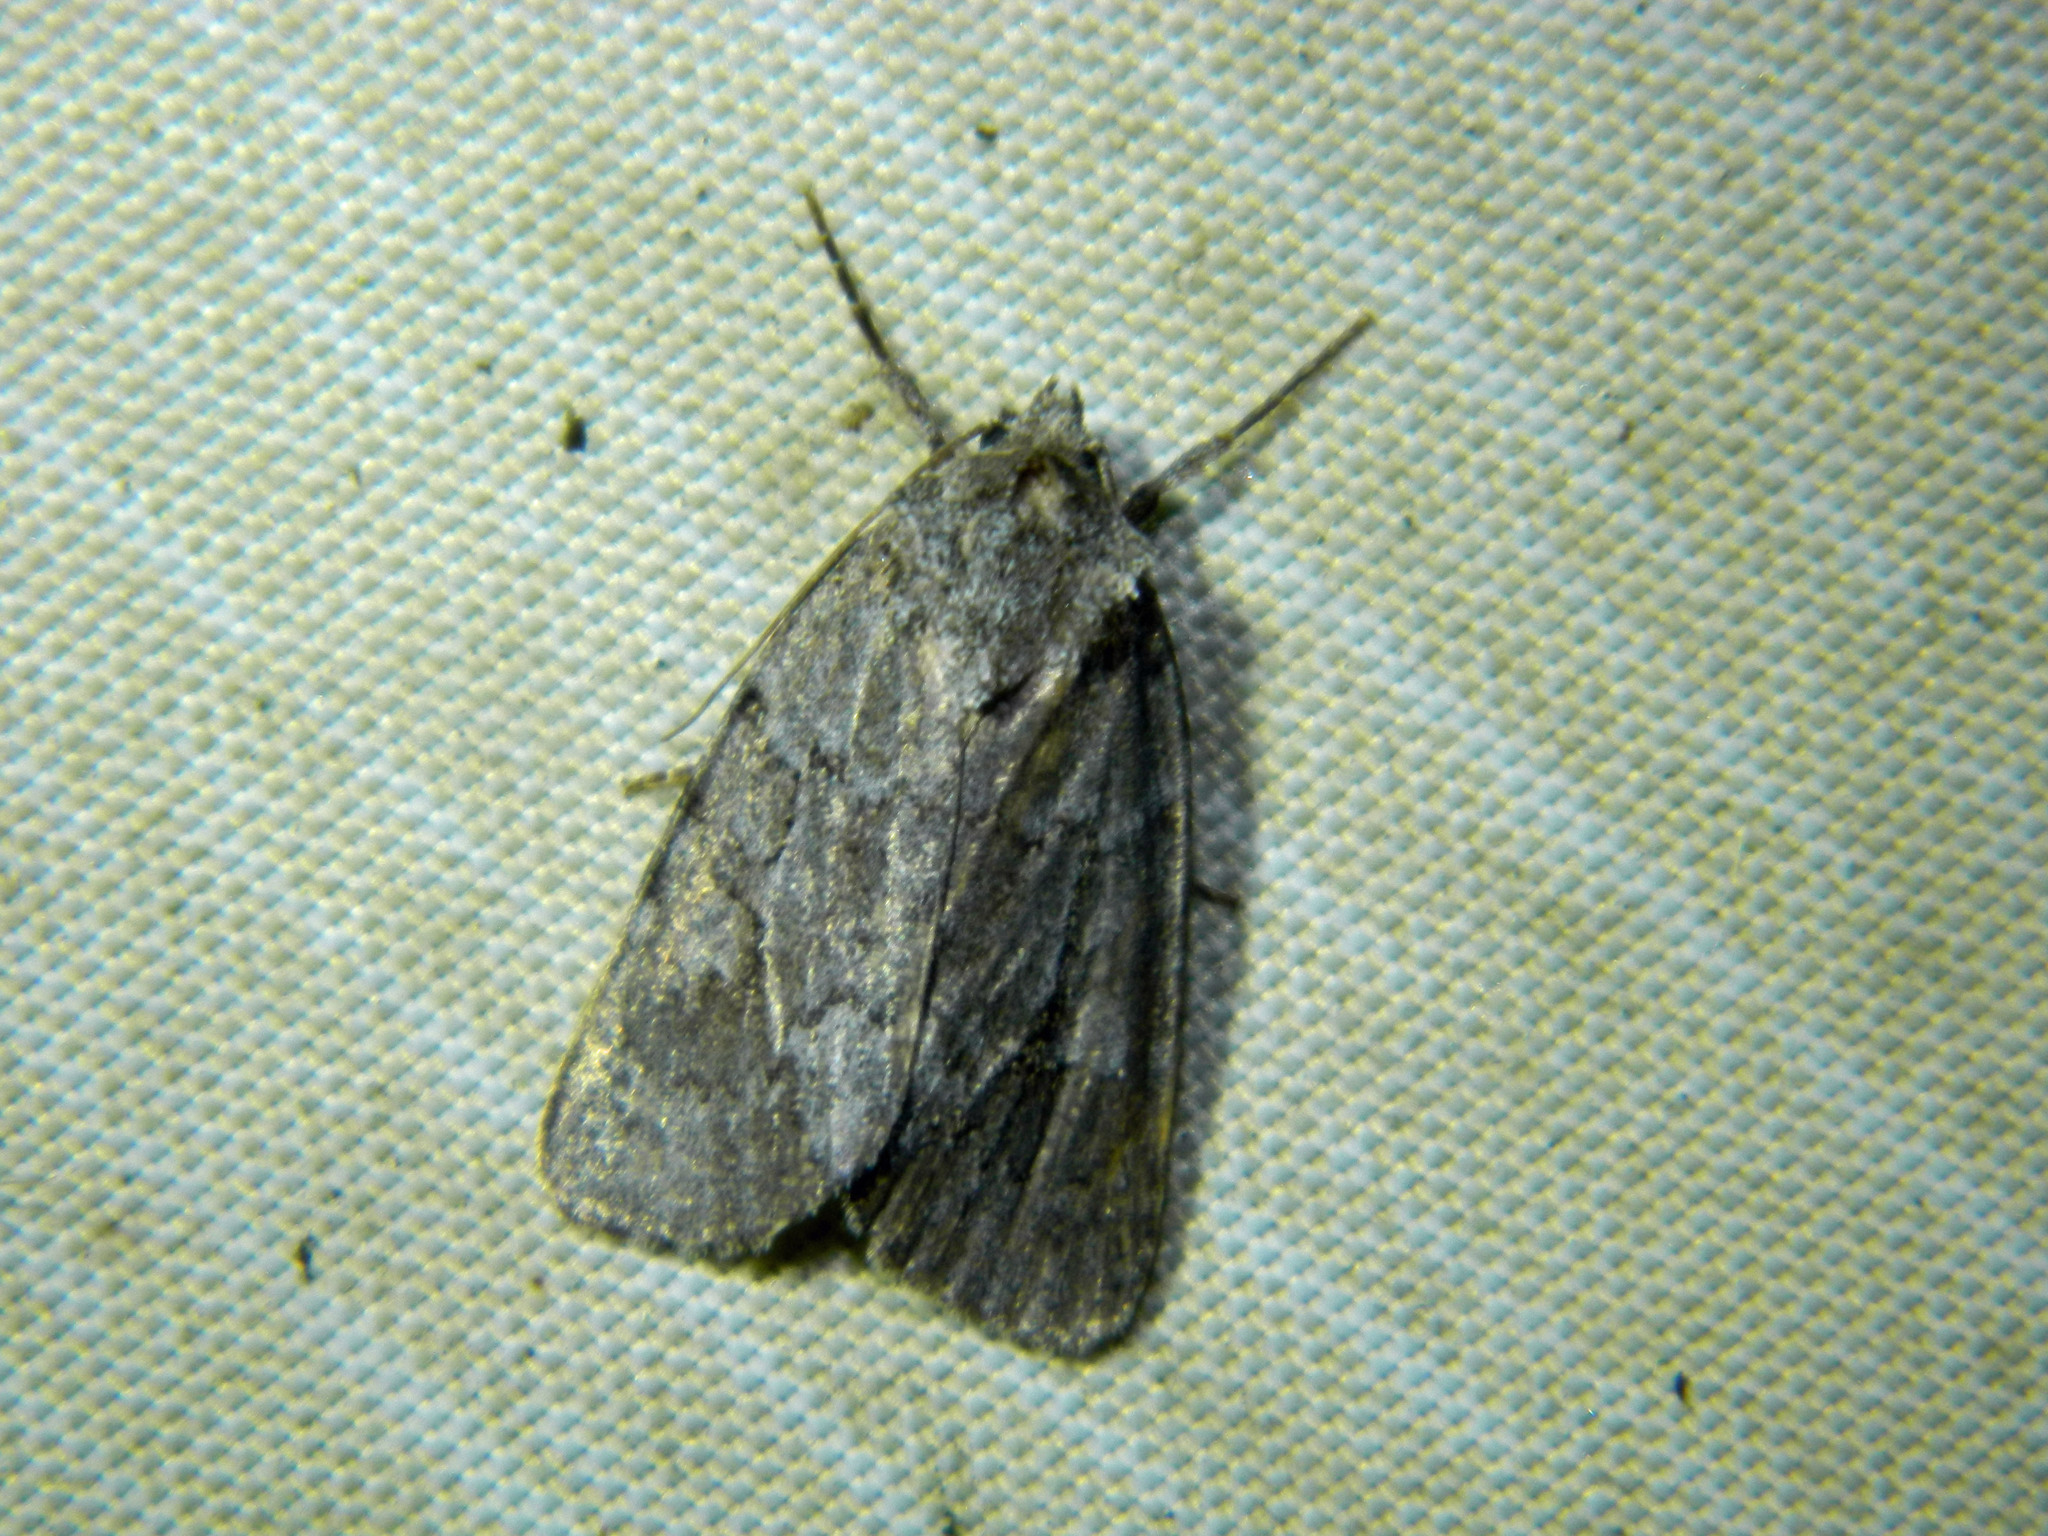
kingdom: Animalia
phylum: Arthropoda
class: Insecta
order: Lepidoptera
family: Noctuidae
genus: Sympistis
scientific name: Sympistis dentata
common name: Blueberry sallow
